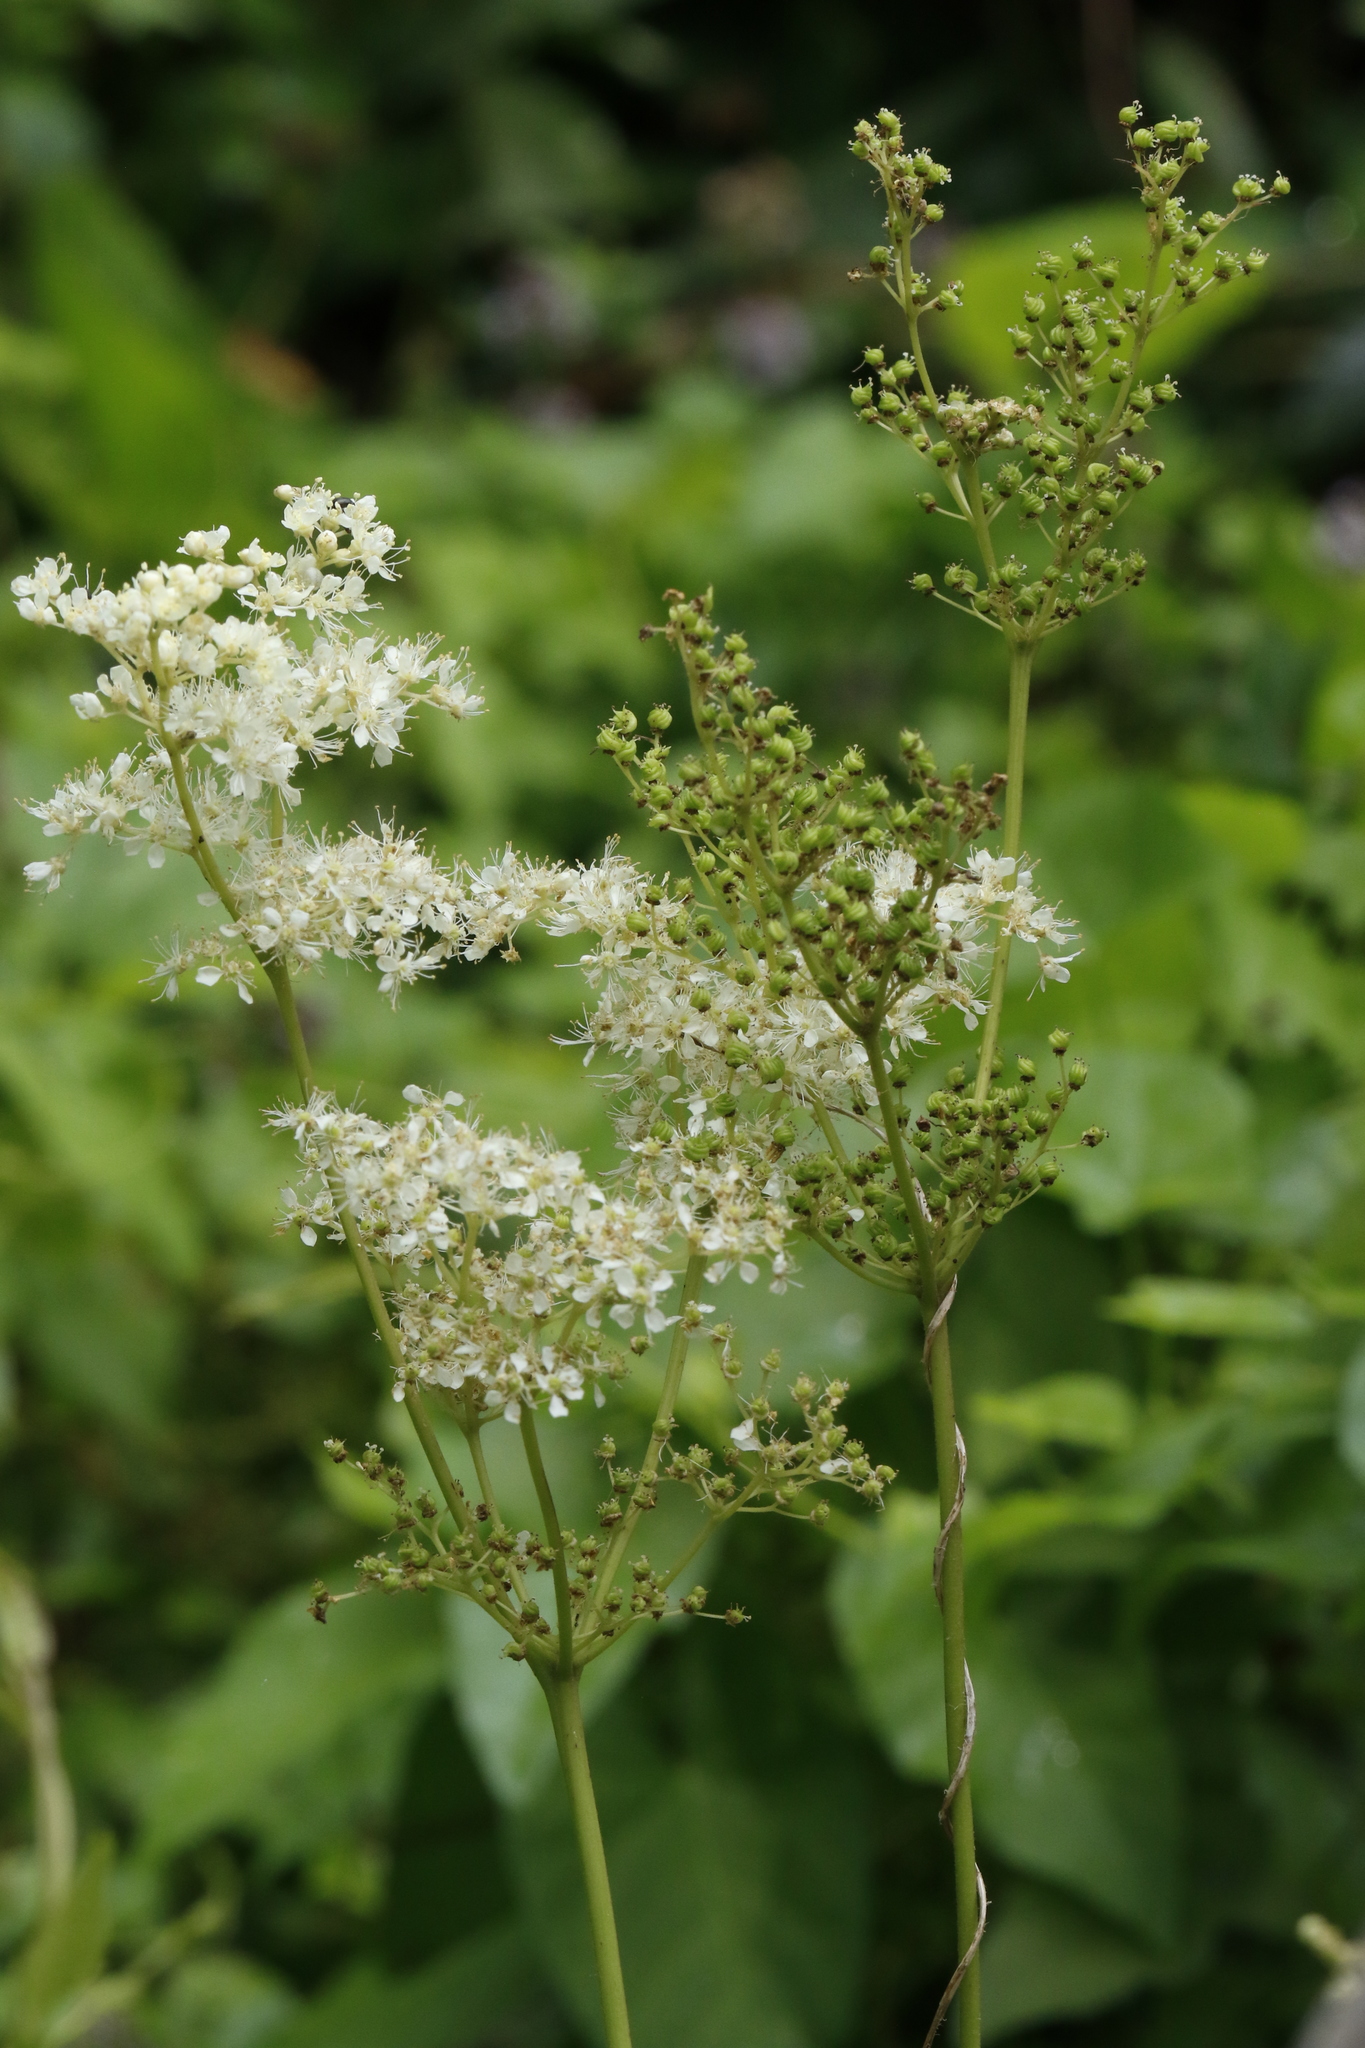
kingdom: Plantae
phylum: Tracheophyta
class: Magnoliopsida
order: Rosales
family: Rosaceae
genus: Filipendula
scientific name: Filipendula ulmaria
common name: Meadowsweet
